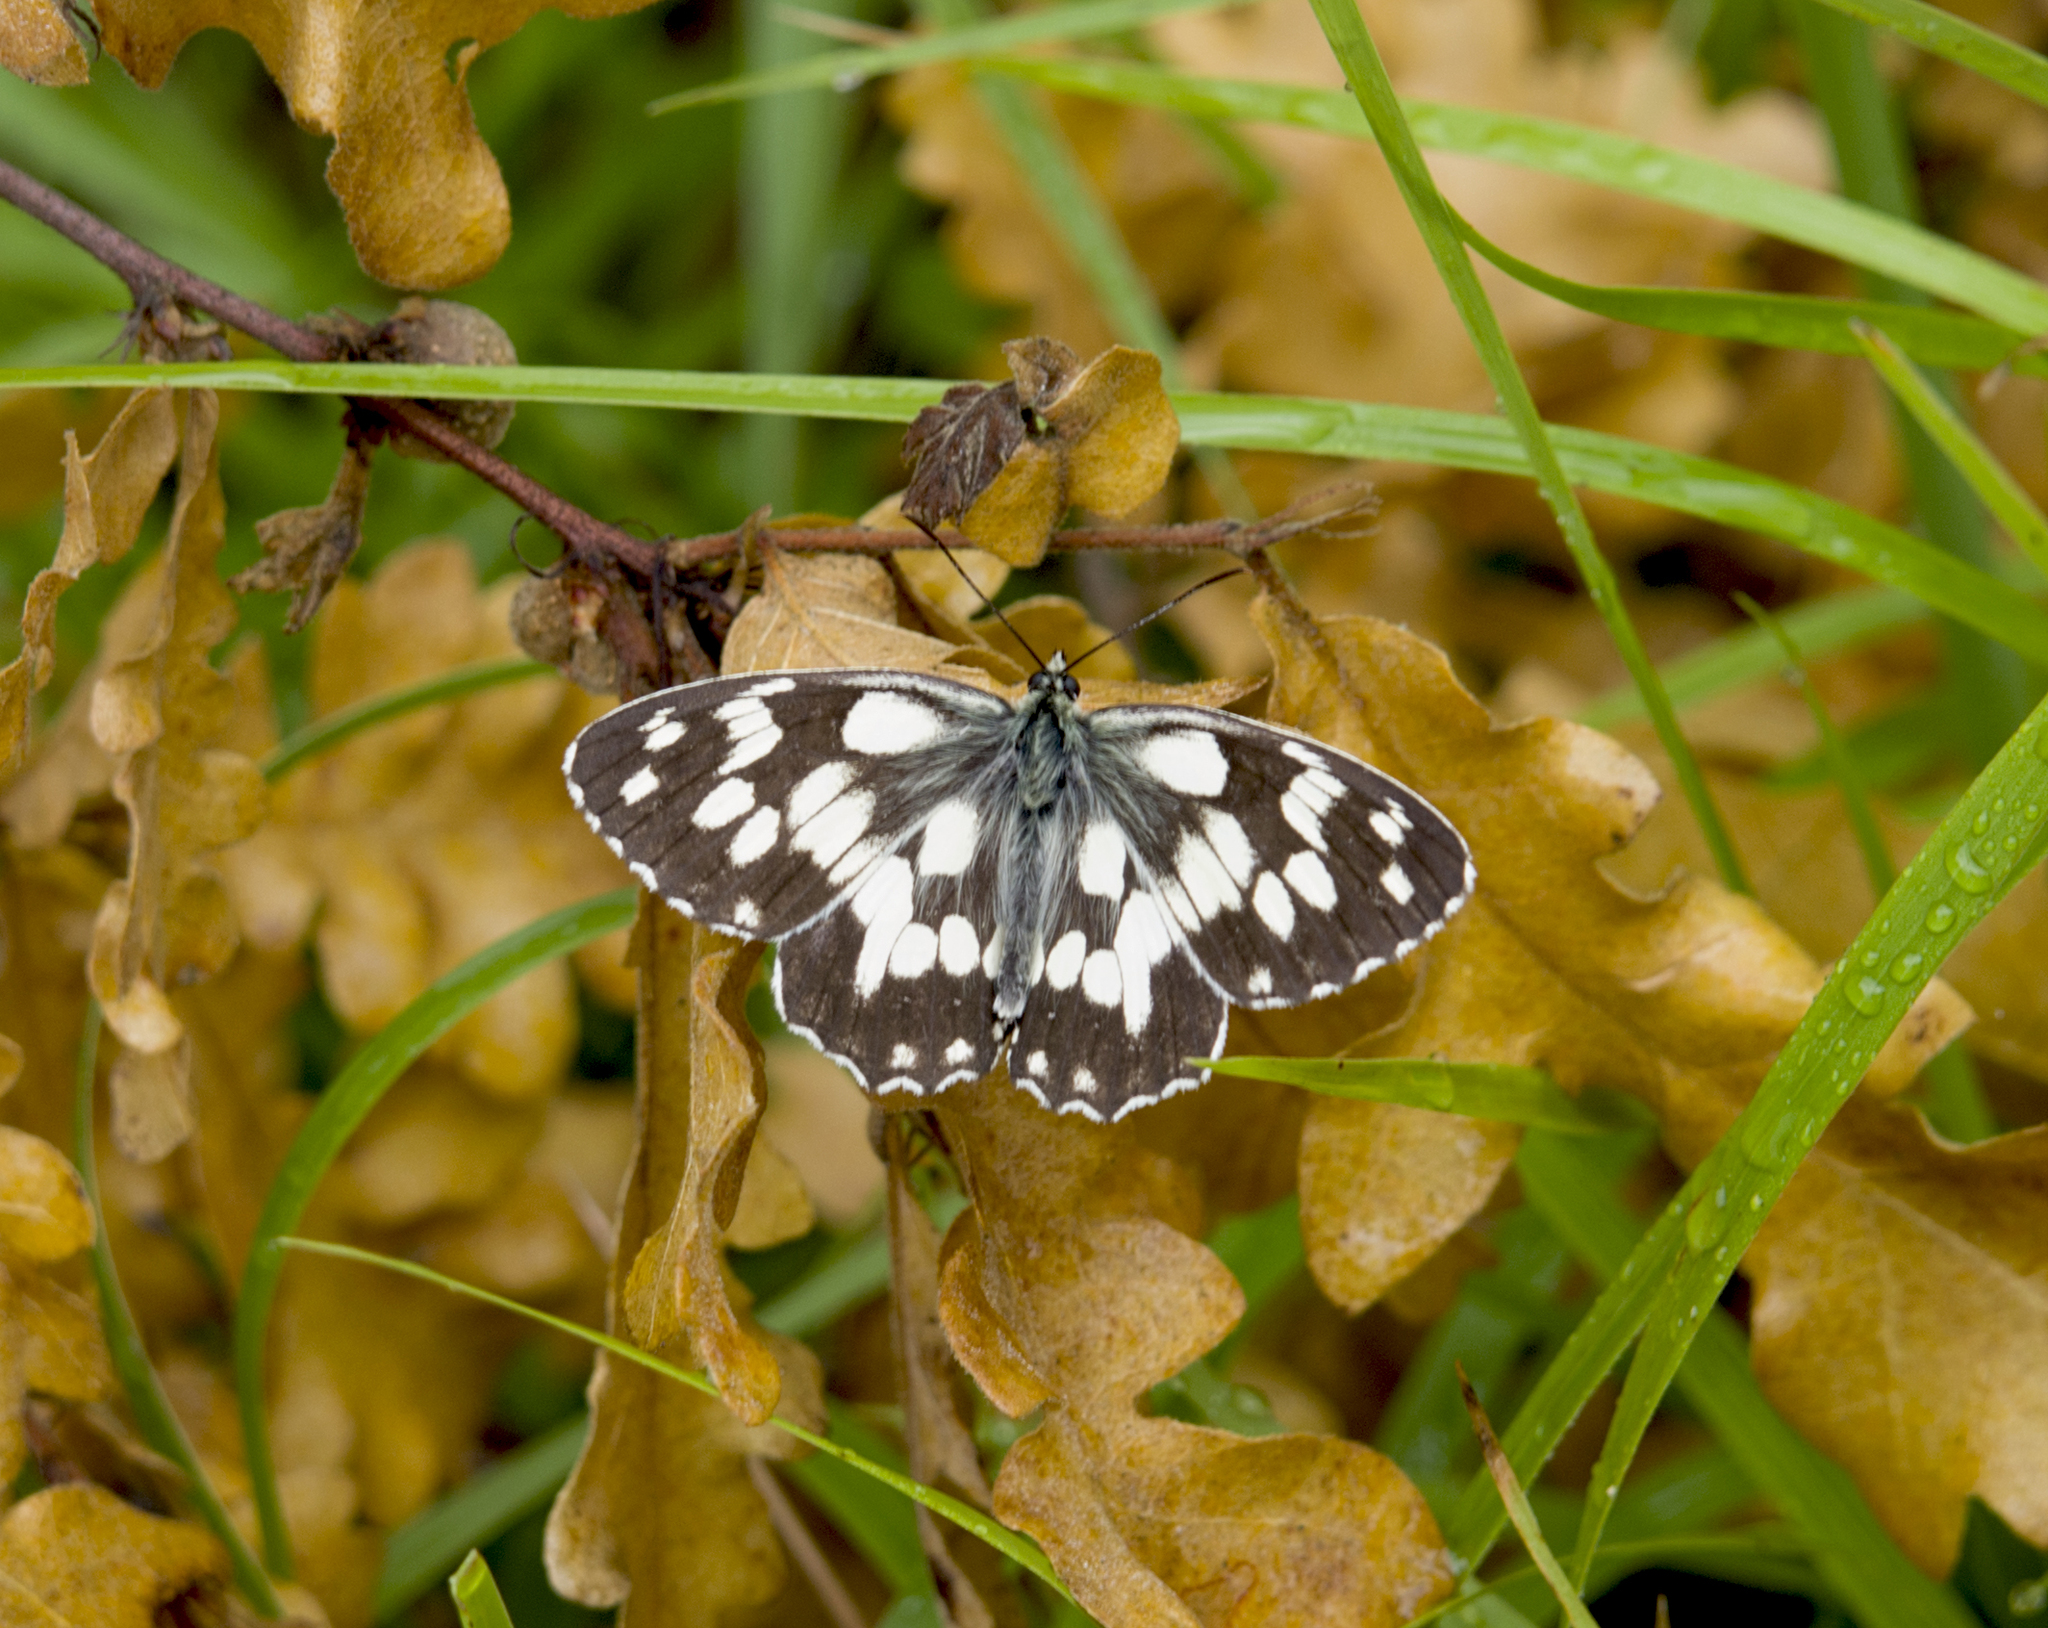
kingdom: Animalia
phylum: Arthropoda
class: Insecta
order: Lepidoptera
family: Nymphalidae
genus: Melanargia
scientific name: Melanargia galathea
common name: Marbled white
